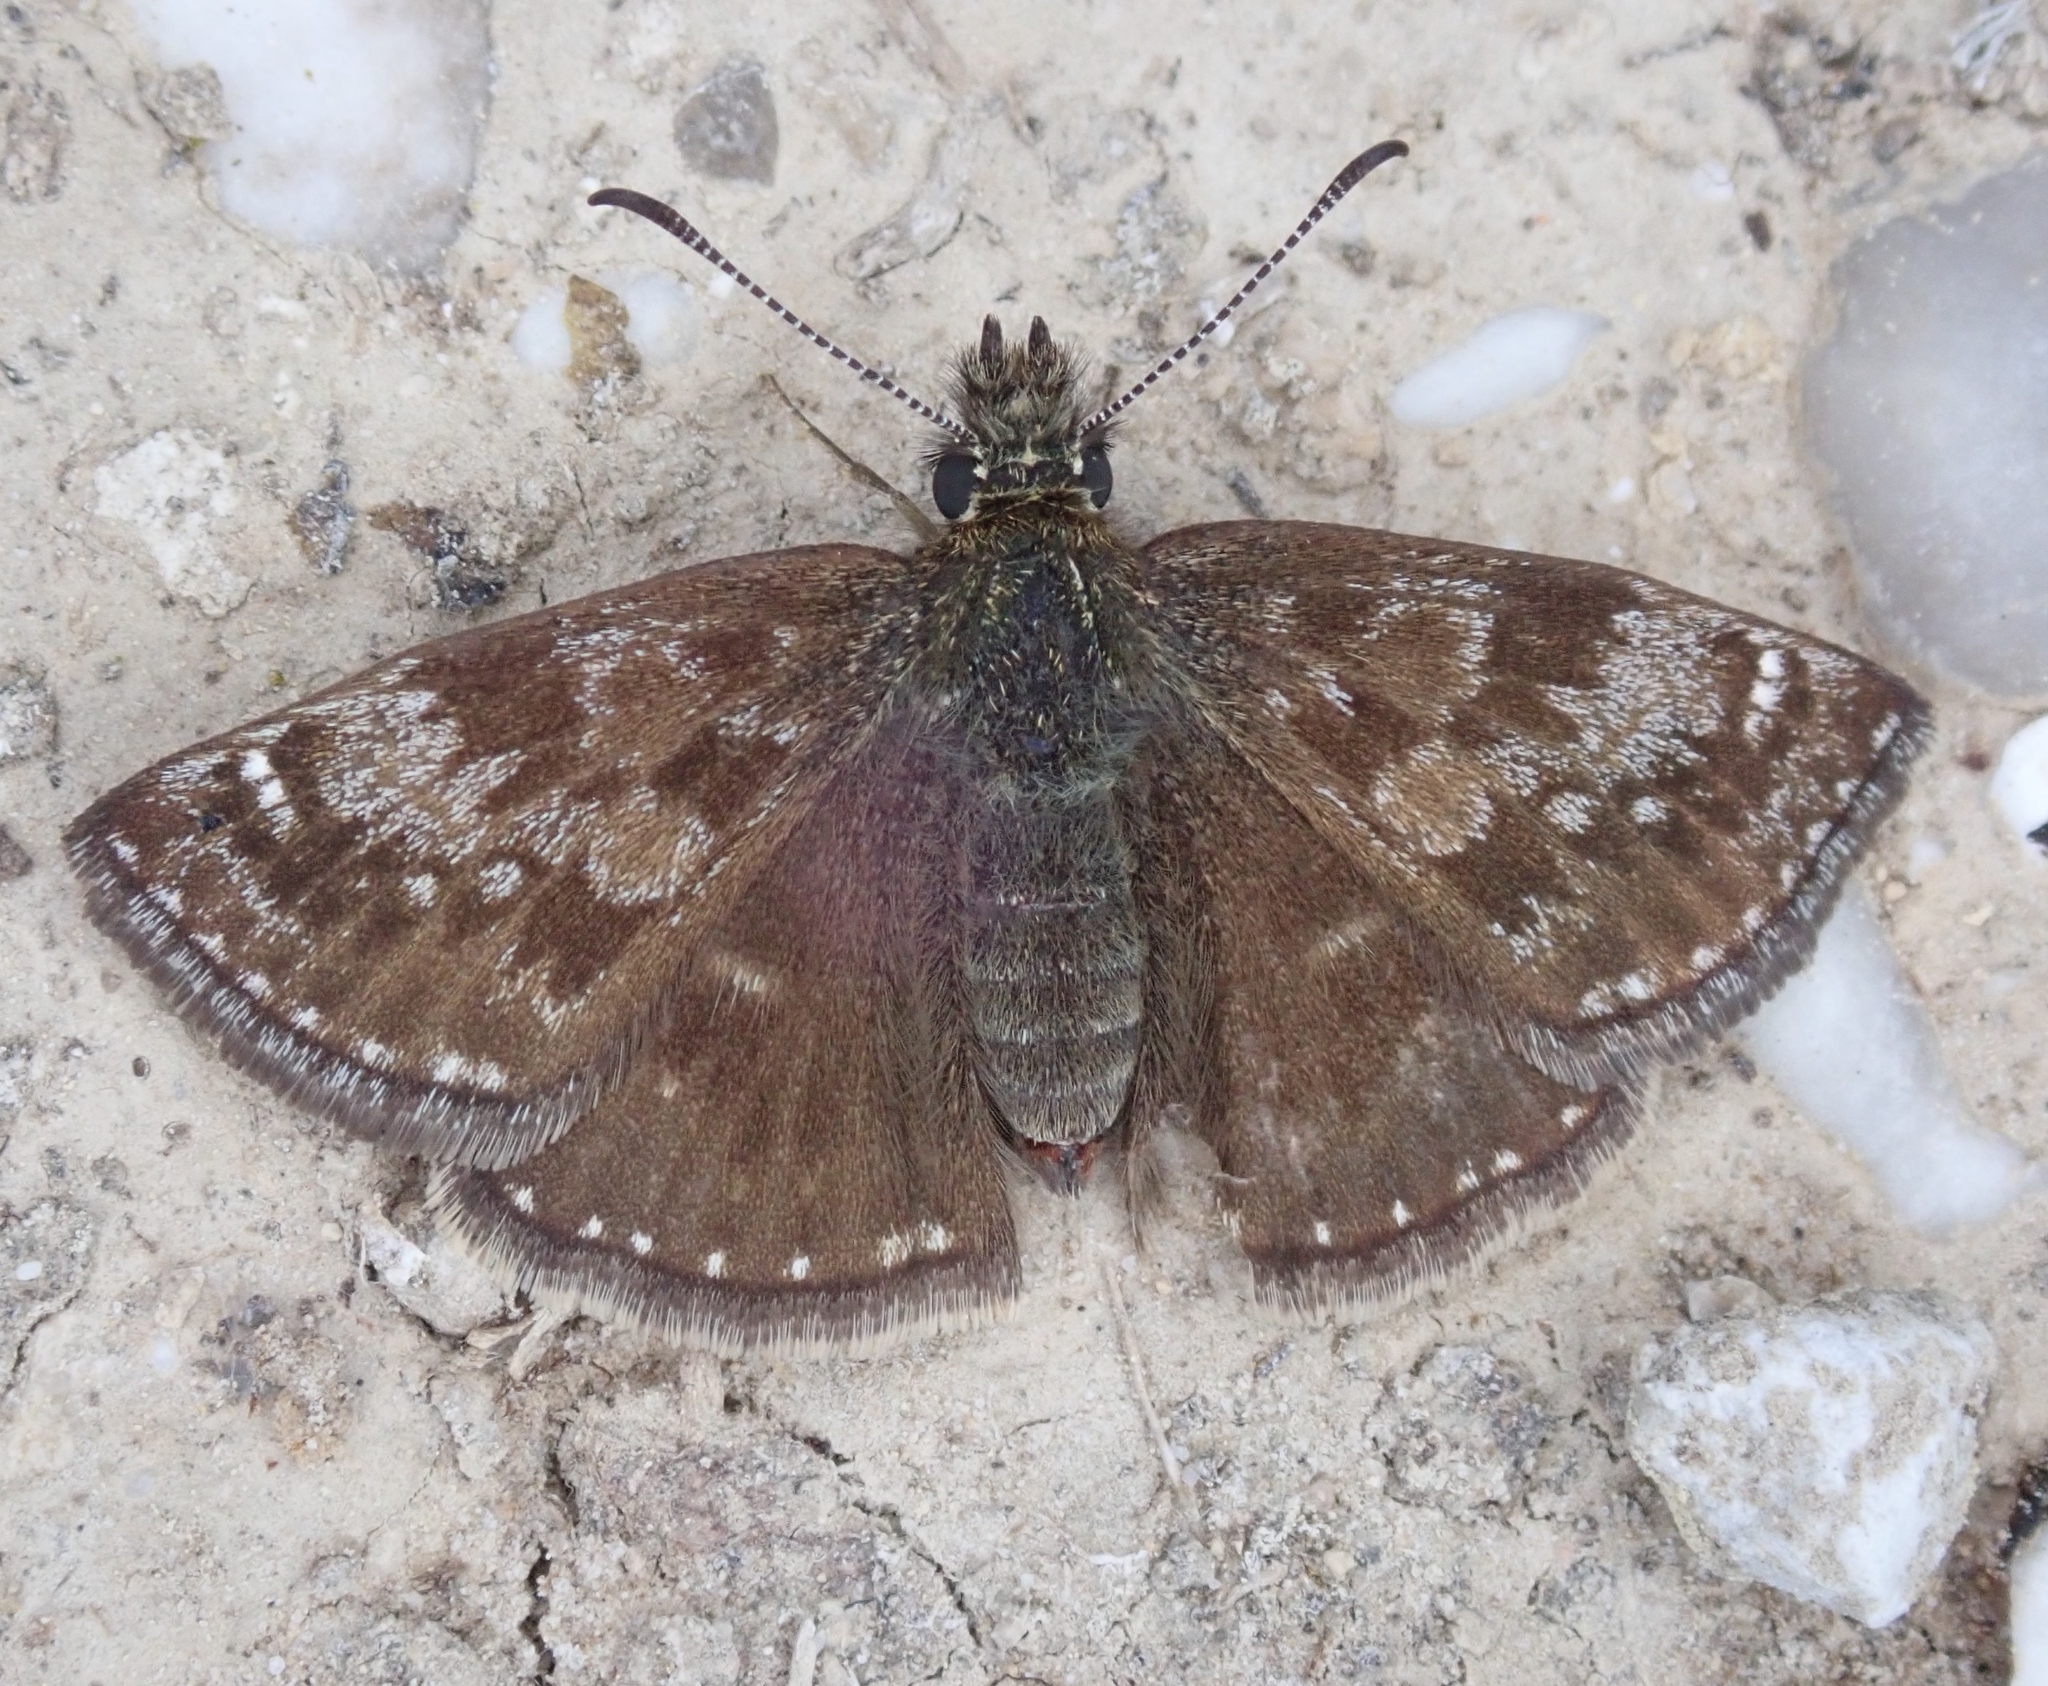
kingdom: Animalia
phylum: Arthropoda
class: Insecta
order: Lepidoptera
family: Hesperiidae
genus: Erynnis
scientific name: Erynnis tages
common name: Dingy skipper
